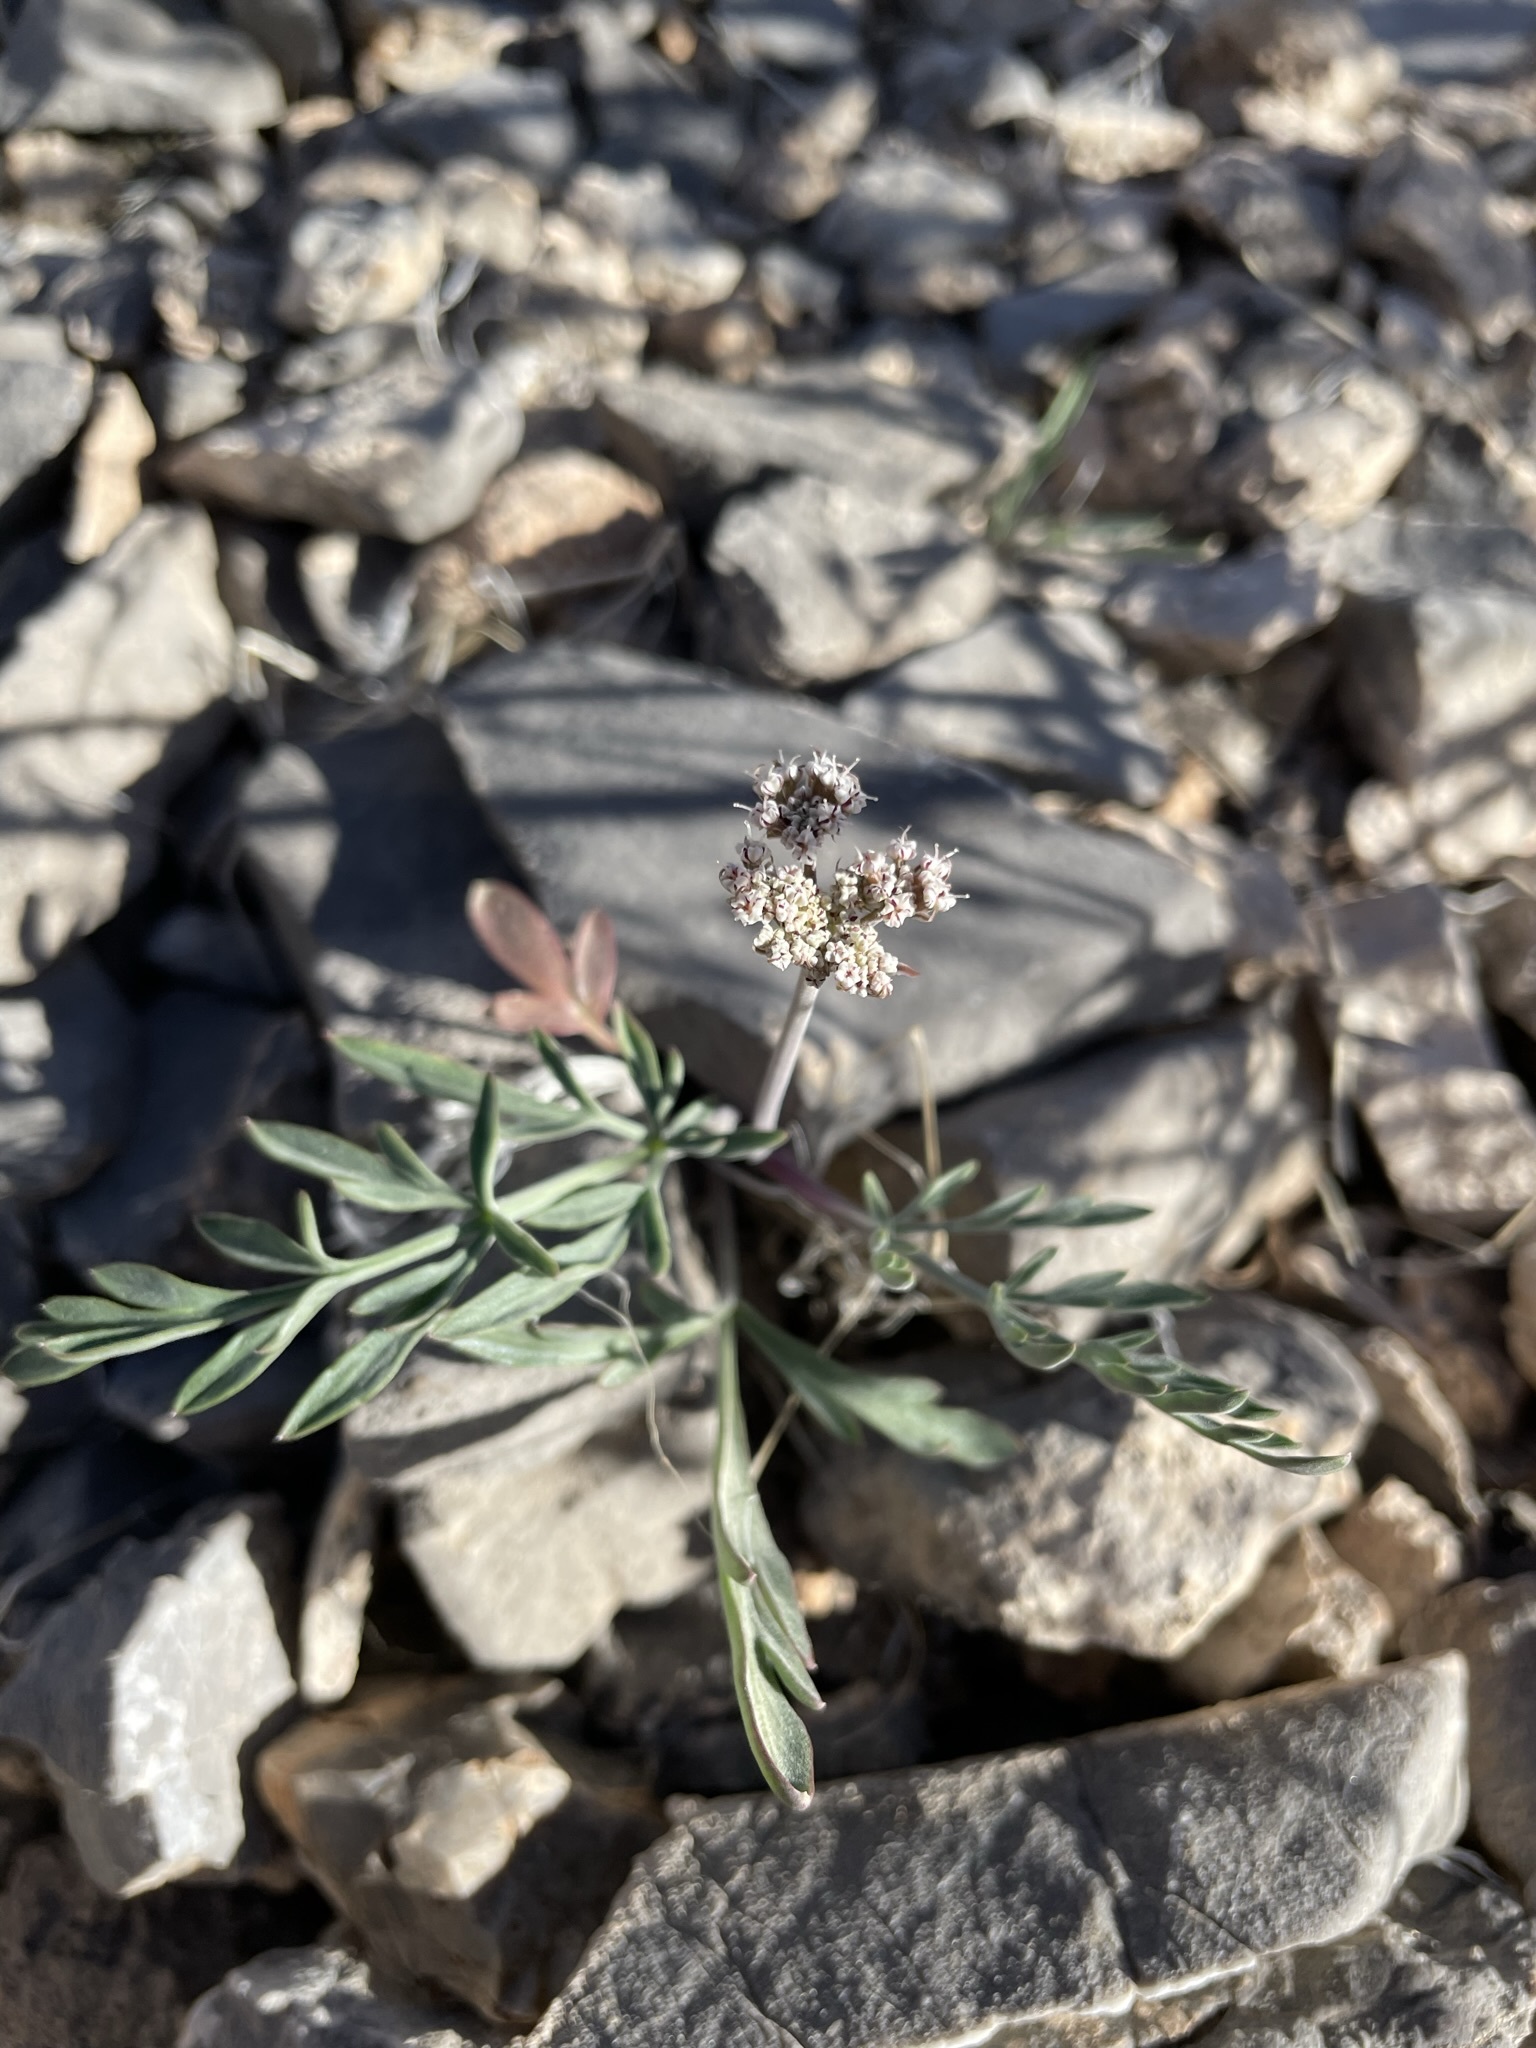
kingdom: Plantae
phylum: Tracheophyta
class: Magnoliopsida
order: Apiales
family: Apiaceae
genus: Lomatium
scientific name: Lomatium nevadense
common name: Nevada lomatium
